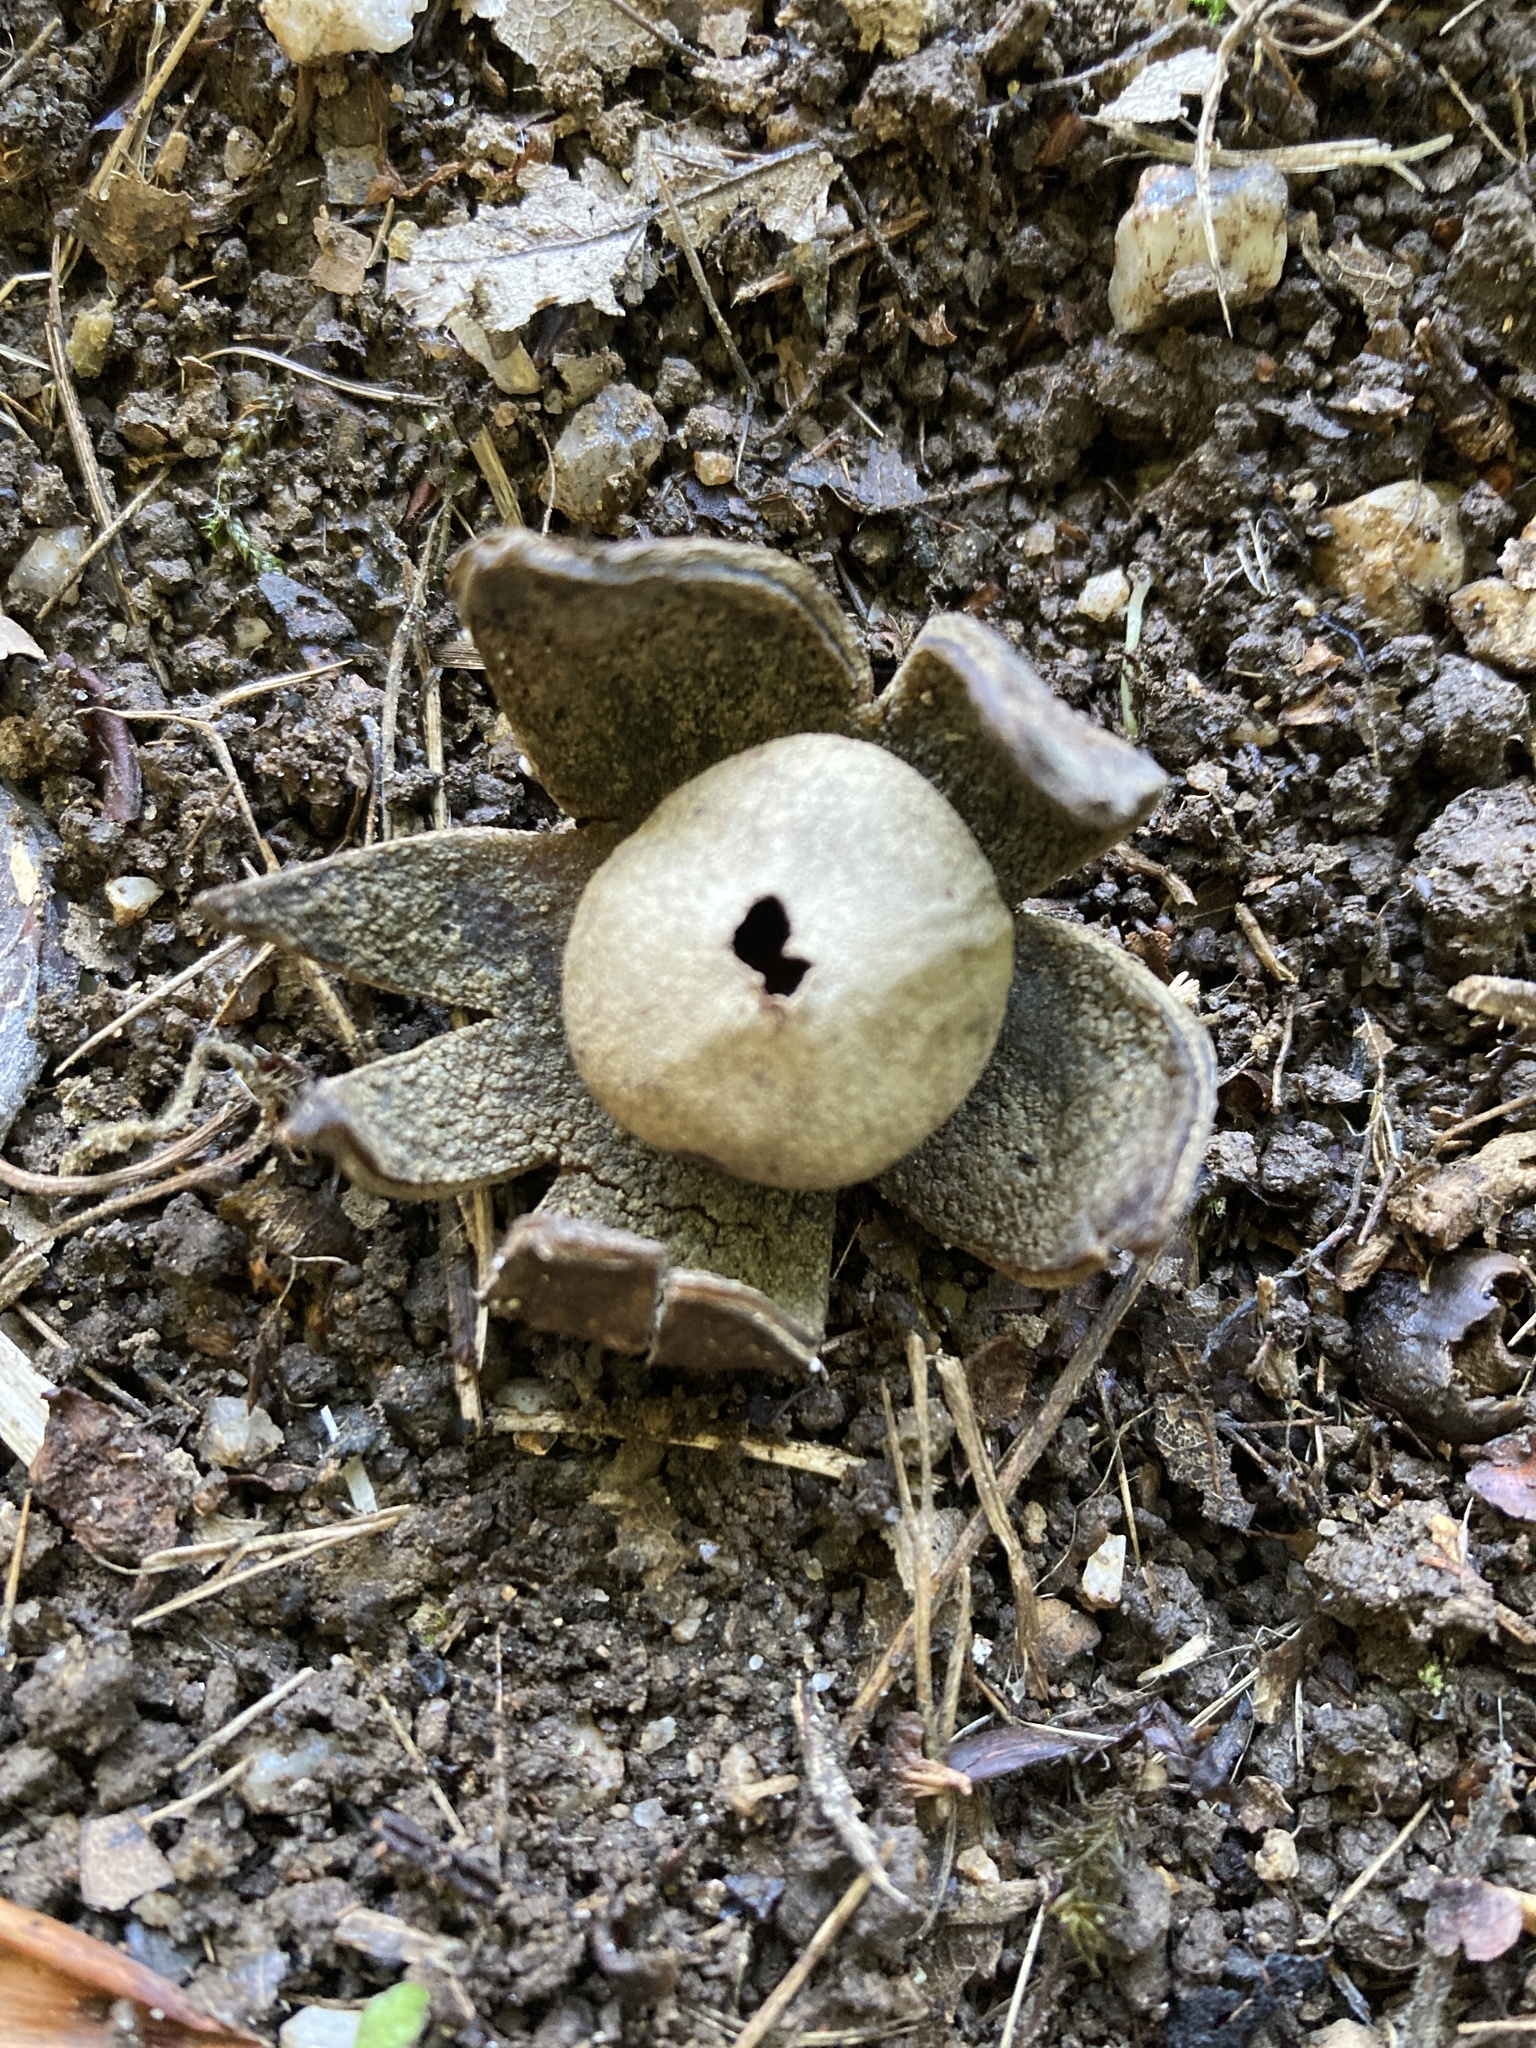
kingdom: Fungi
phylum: Basidiomycota
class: Agaricomycetes
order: Boletales
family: Diplocystidiaceae
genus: Astraeus
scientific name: Astraeus hygrometricus
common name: Barometer earthstar
